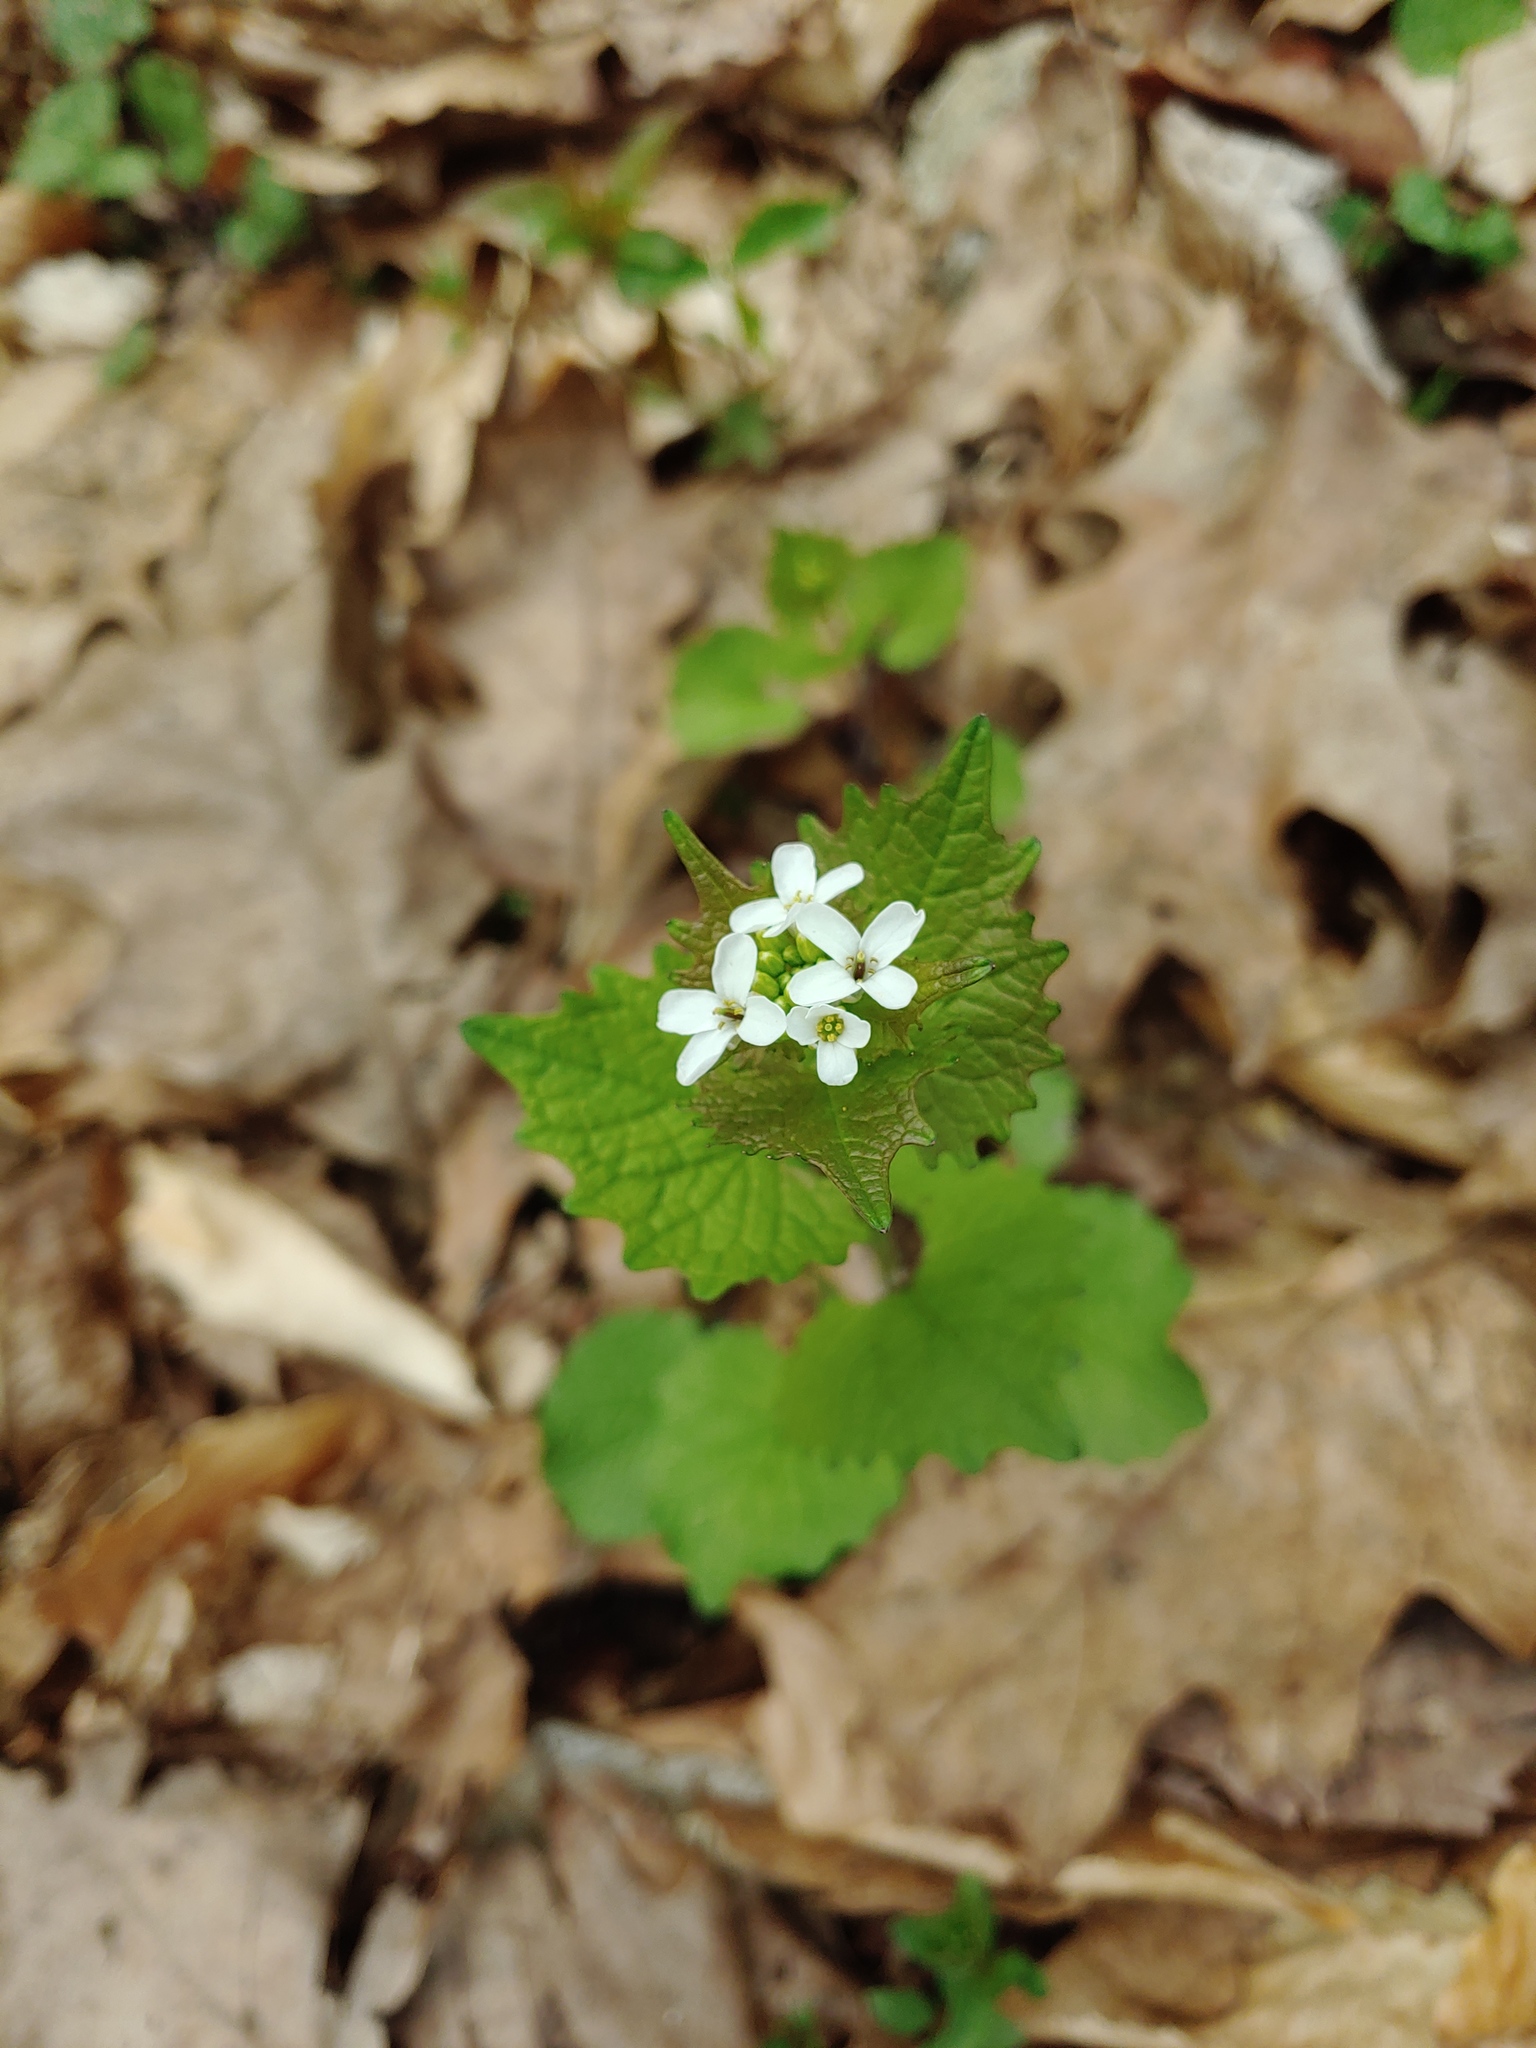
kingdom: Plantae
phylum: Tracheophyta
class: Magnoliopsida
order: Brassicales
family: Brassicaceae
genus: Alliaria
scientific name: Alliaria petiolata
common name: Garlic mustard
